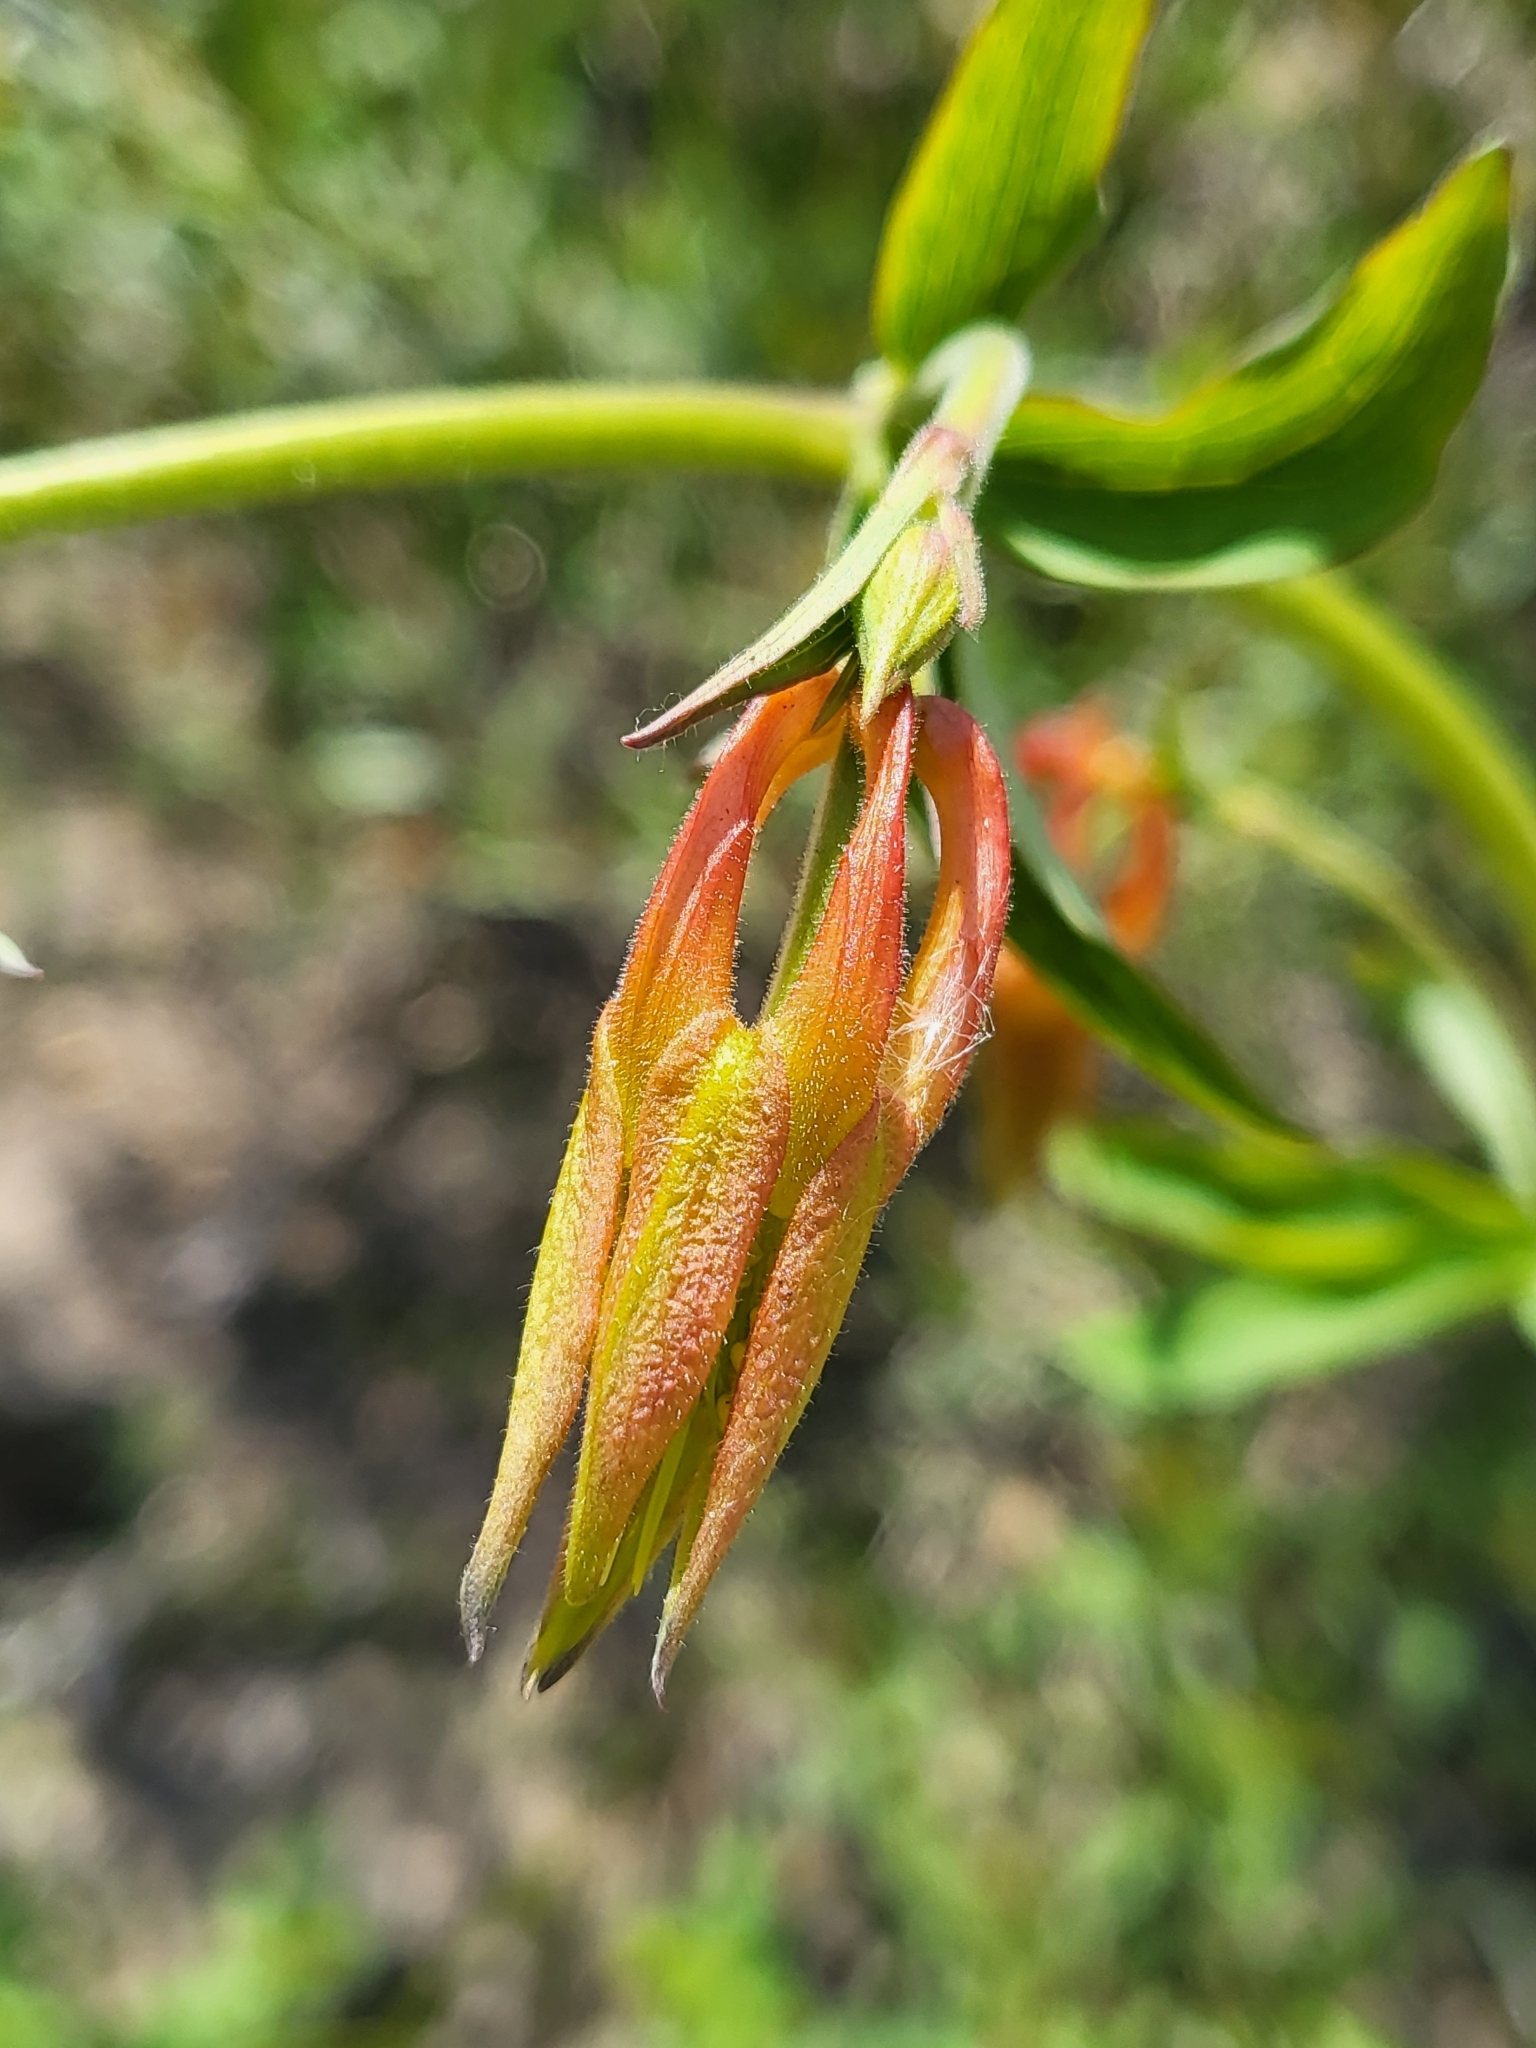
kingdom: Plantae
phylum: Tracheophyta
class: Magnoliopsida
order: Ranunculales
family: Ranunculaceae
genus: Aquilegia
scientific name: Aquilegia formosa
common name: Sitka columbine
